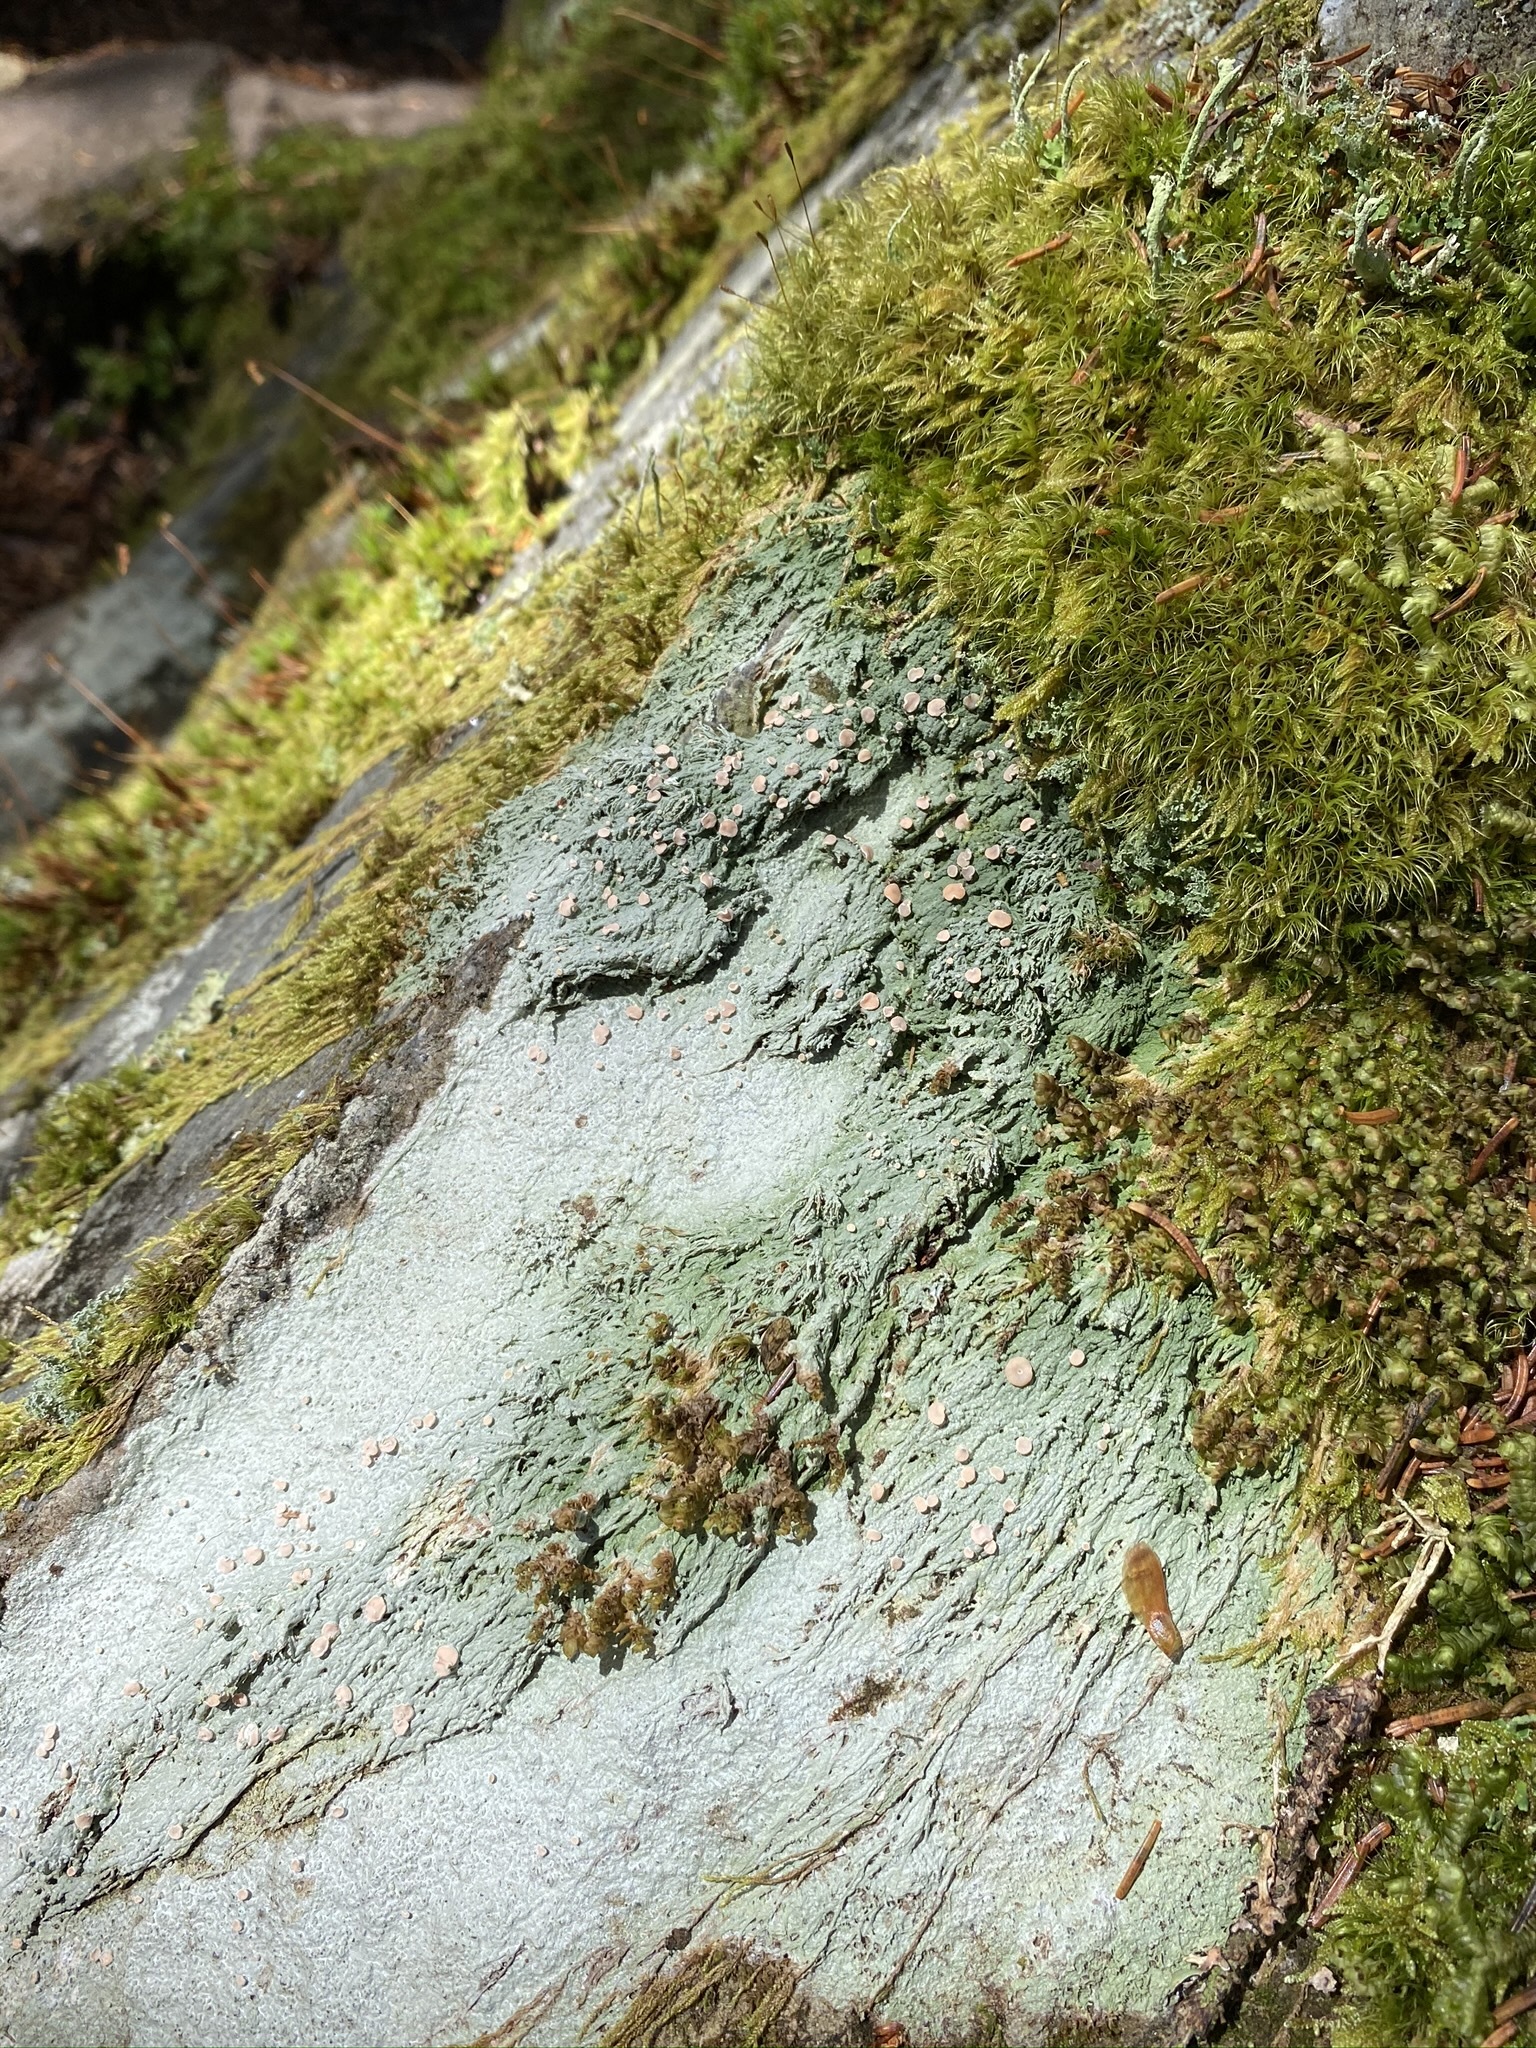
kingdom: Fungi
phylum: Ascomycota
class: Lecanoromycetes
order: Pertusariales
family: Icmadophilaceae
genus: Icmadophila
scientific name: Icmadophila ericetorum
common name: Candy lichen
